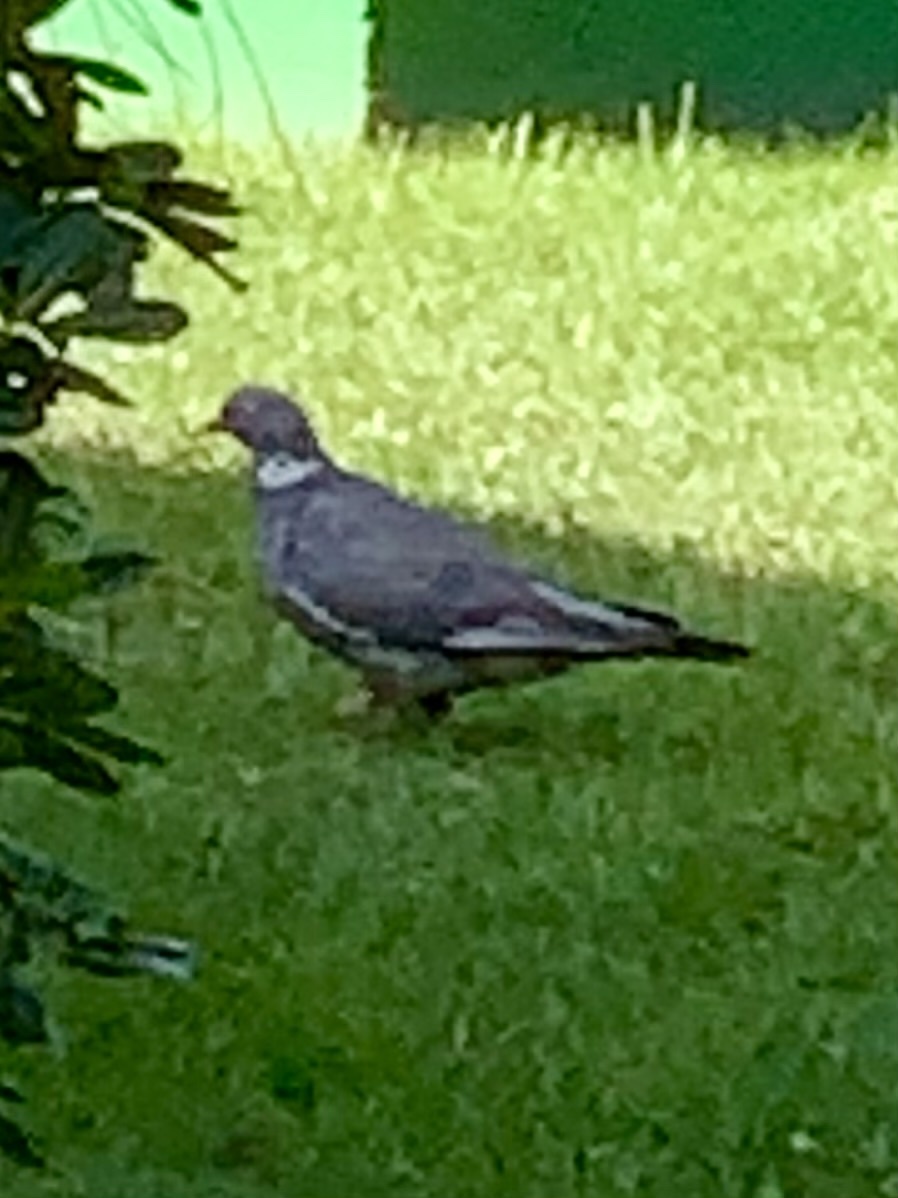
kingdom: Animalia
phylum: Chordata
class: Aves
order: Columbiformes
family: Columbidae
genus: Columba
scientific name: Columba palumbus
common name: Common wood pigeon
